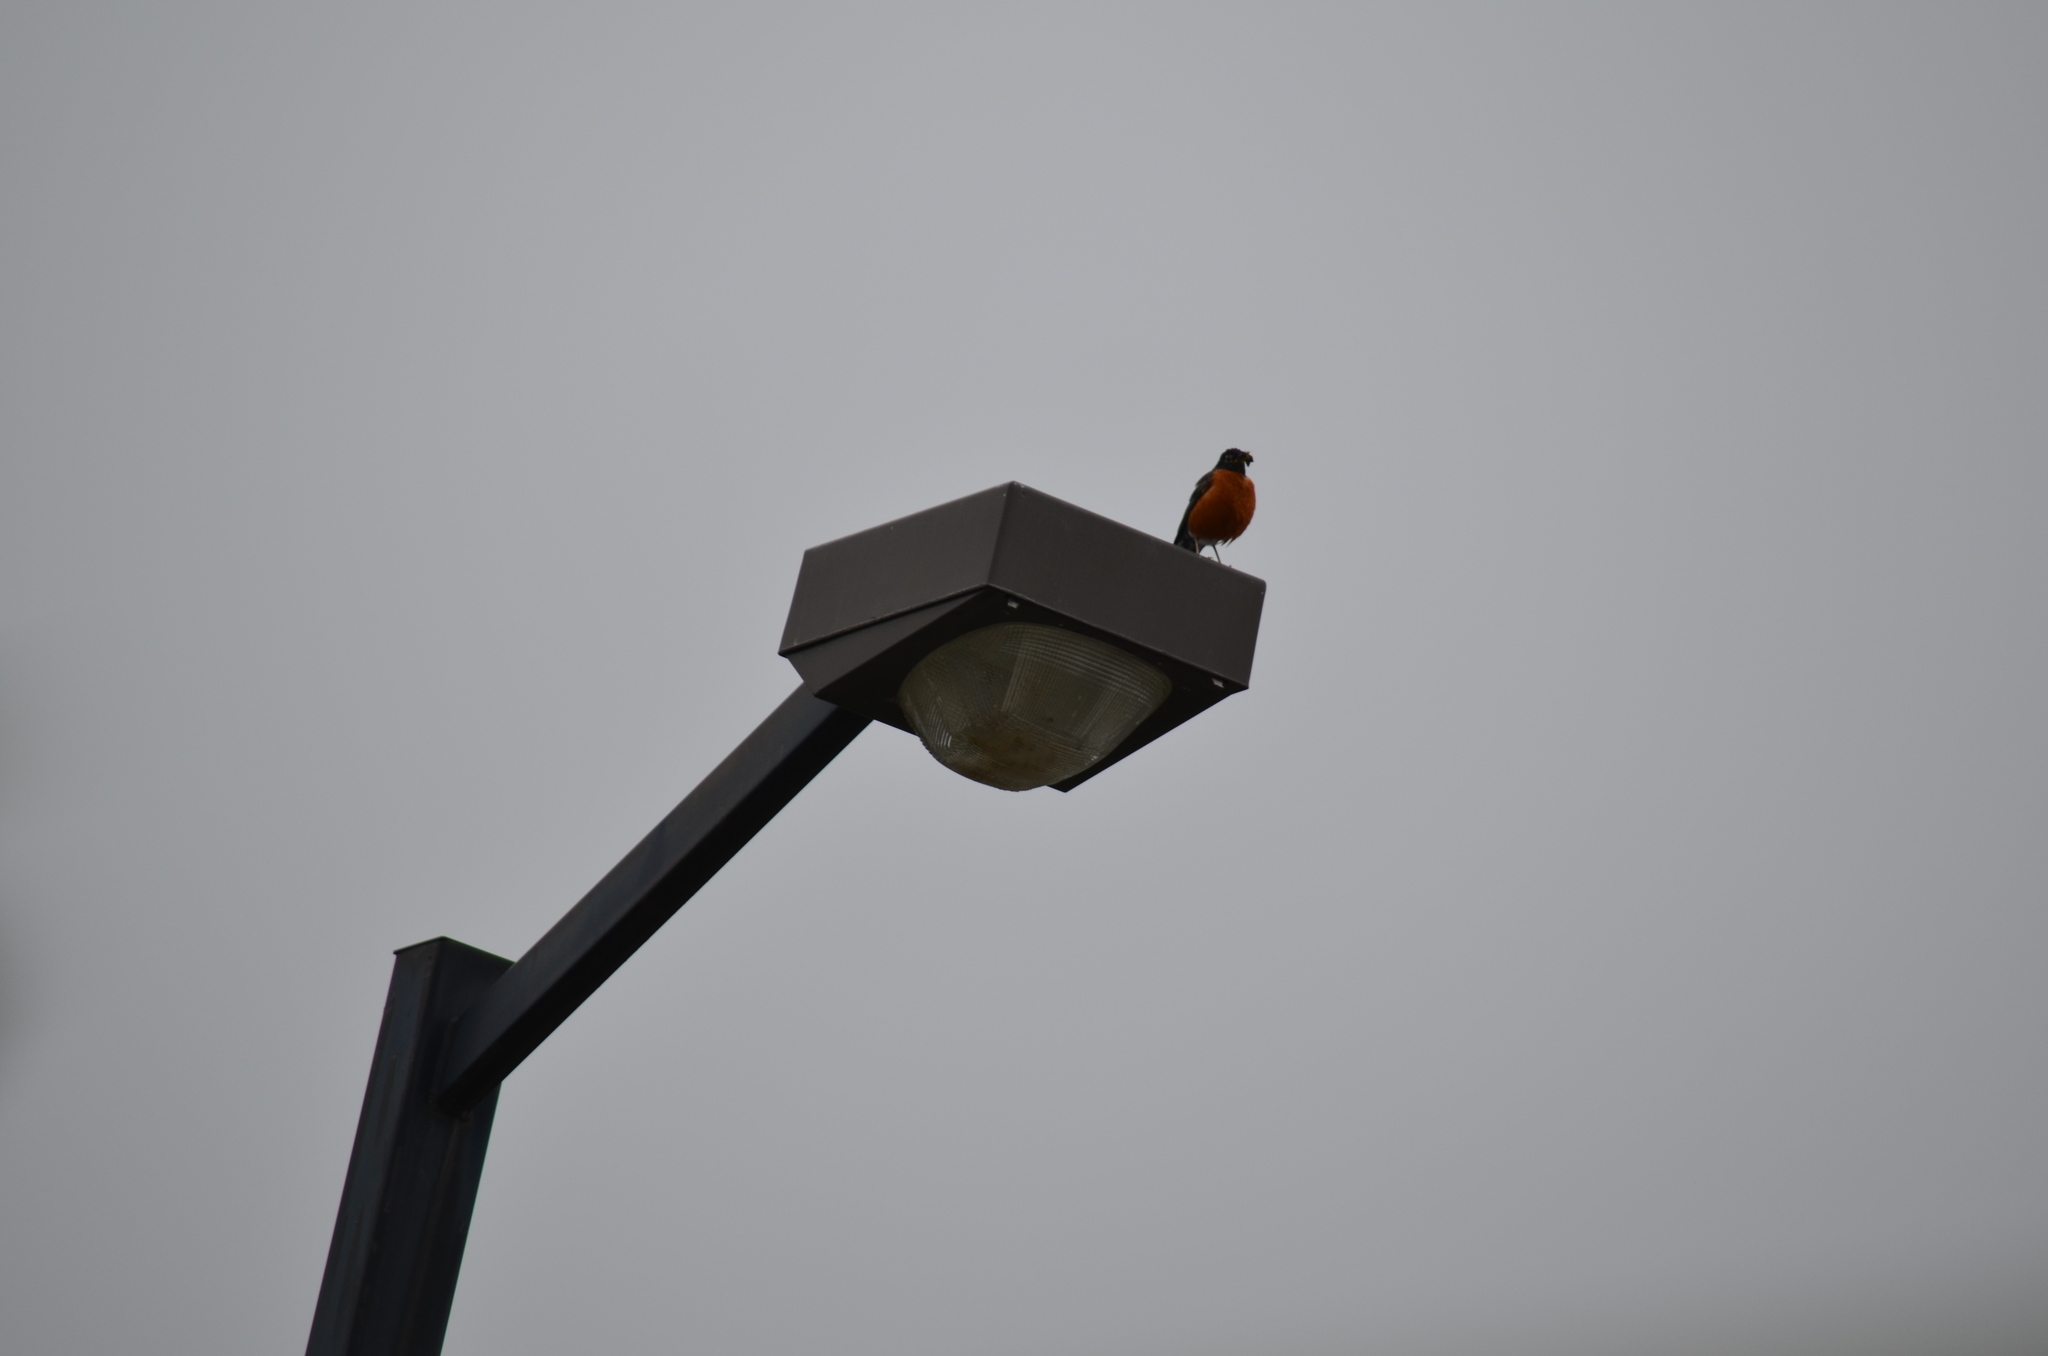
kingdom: Animalia
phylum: Chordata
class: Aves
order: Passeriformes
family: Turdidae
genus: Turdus
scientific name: Turdus migratorius
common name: American robin
